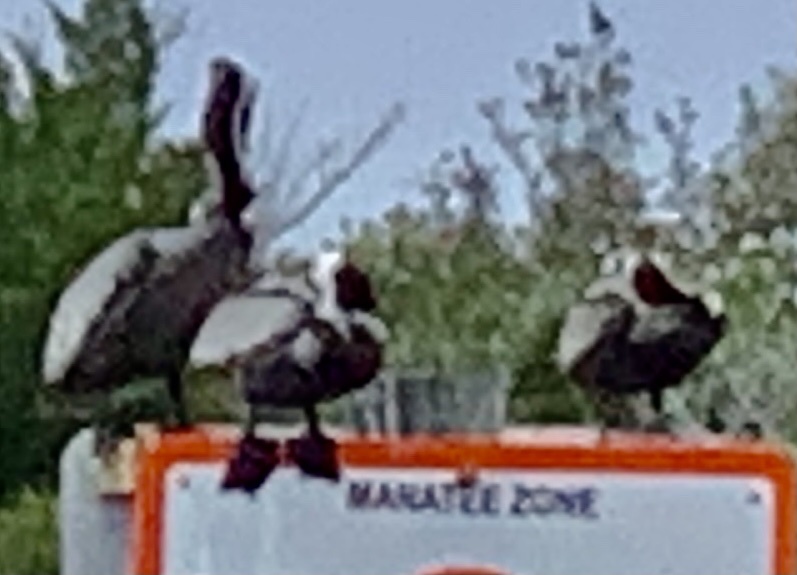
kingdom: Animalia
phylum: Chordata
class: Aves
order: Pelecaniformes
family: Pelecanidae
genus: Pelecanus
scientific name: Pelecanus occidentalis
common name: Brown pelican
